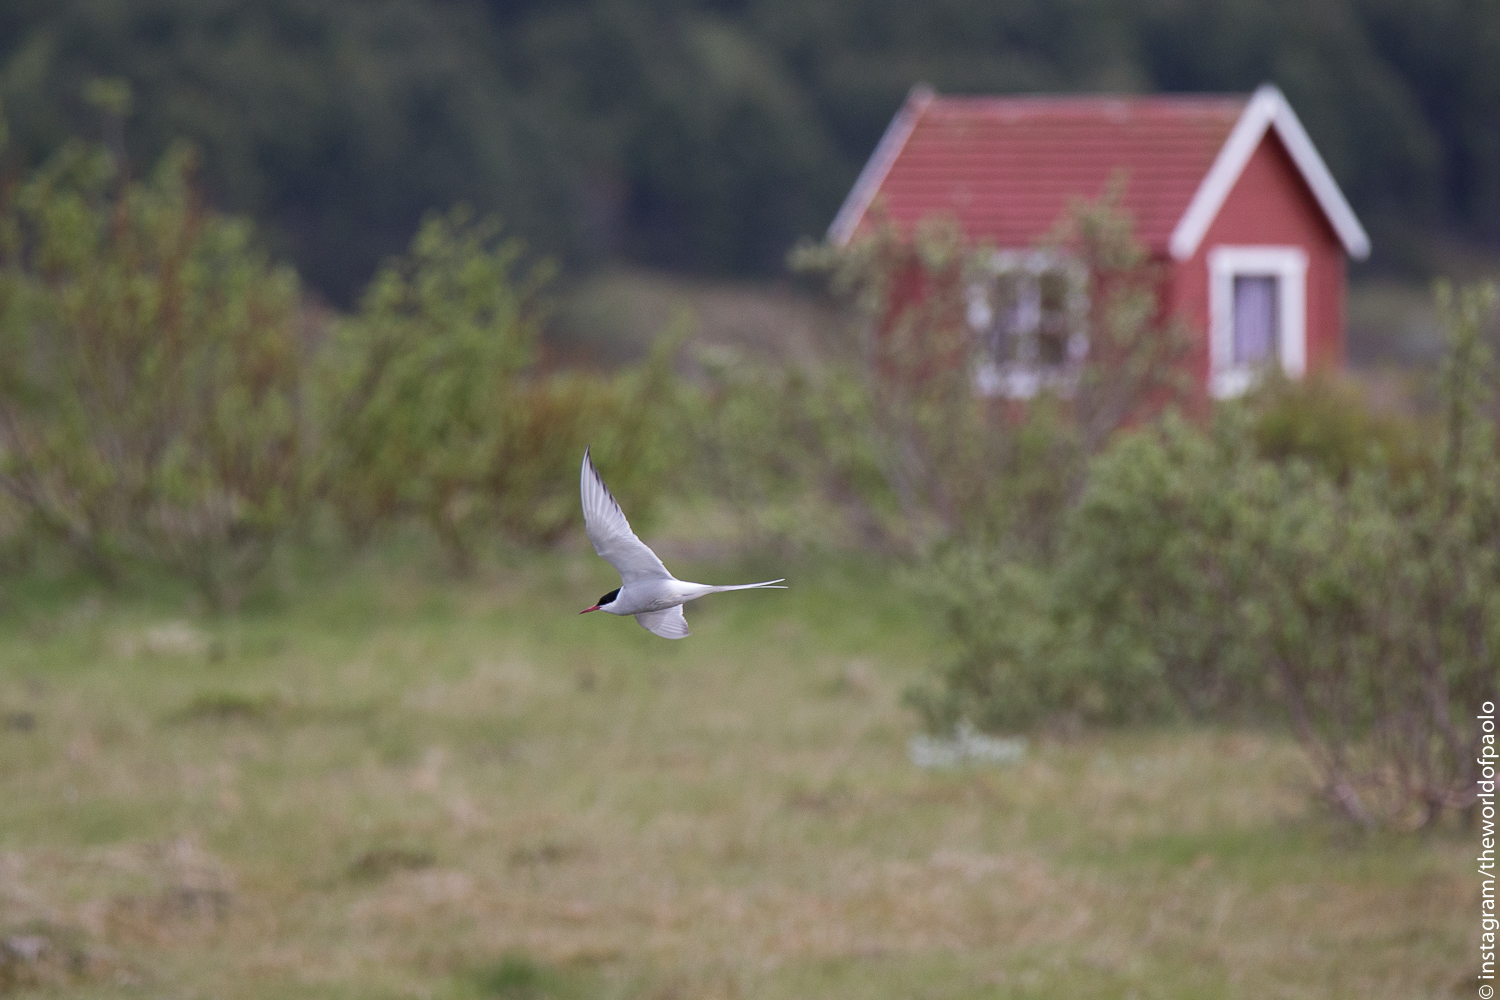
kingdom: Animalia
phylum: Chordata
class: Aves
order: Charadriiformes
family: Laridae
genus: Sterna
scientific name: Sterna paradisaea
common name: Arctic tern
